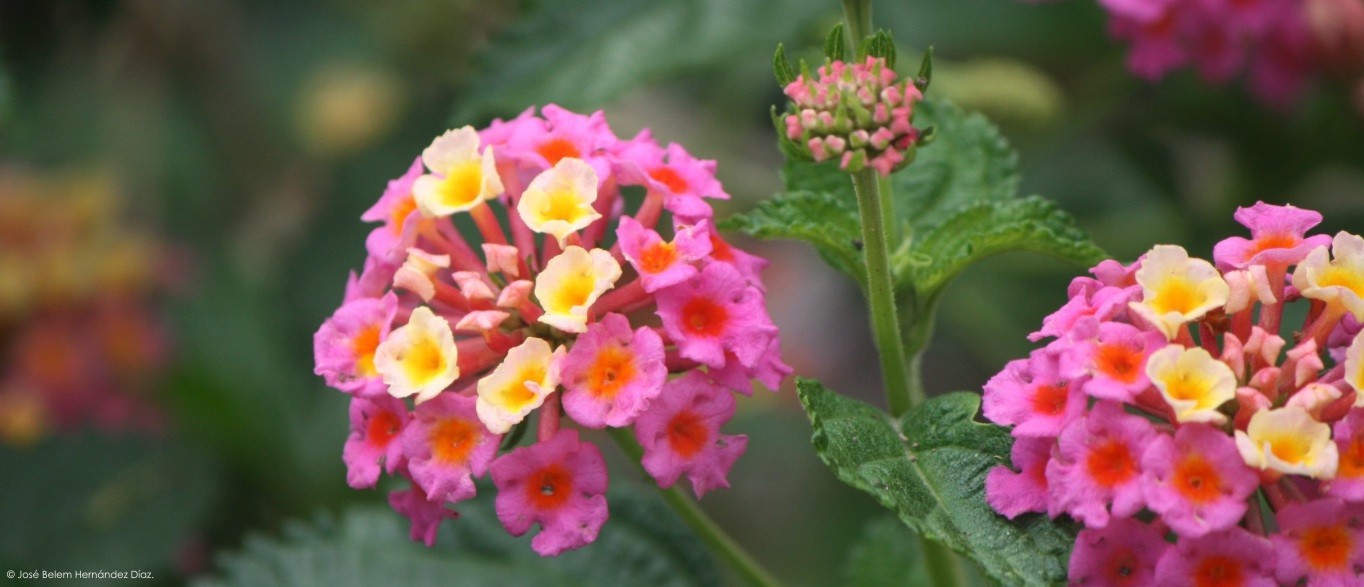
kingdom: Plantae
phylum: Tracheophyta
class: Magnoliopsida
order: Lamiales
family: Verbenaceae
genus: Lantana
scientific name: Lantana camara
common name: Lantana
